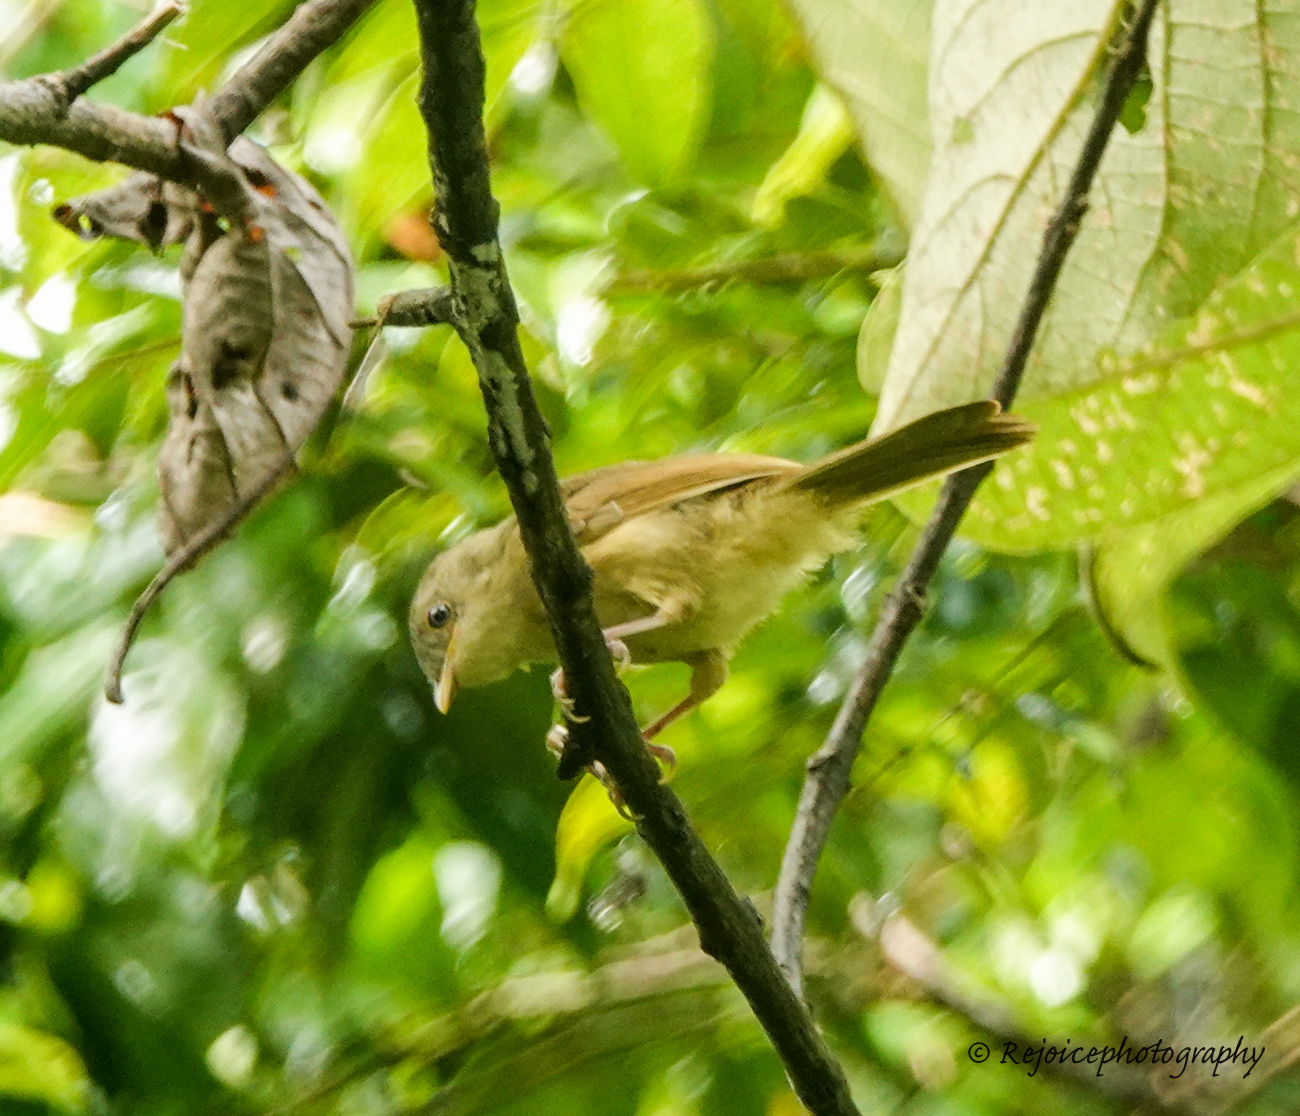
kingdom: Animalia
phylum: Chordata
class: Aves
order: Passeriformes
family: Pellorneidae
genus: Alcippe
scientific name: Alcippe poioicephala
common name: Brown-cheeked fulvetta
